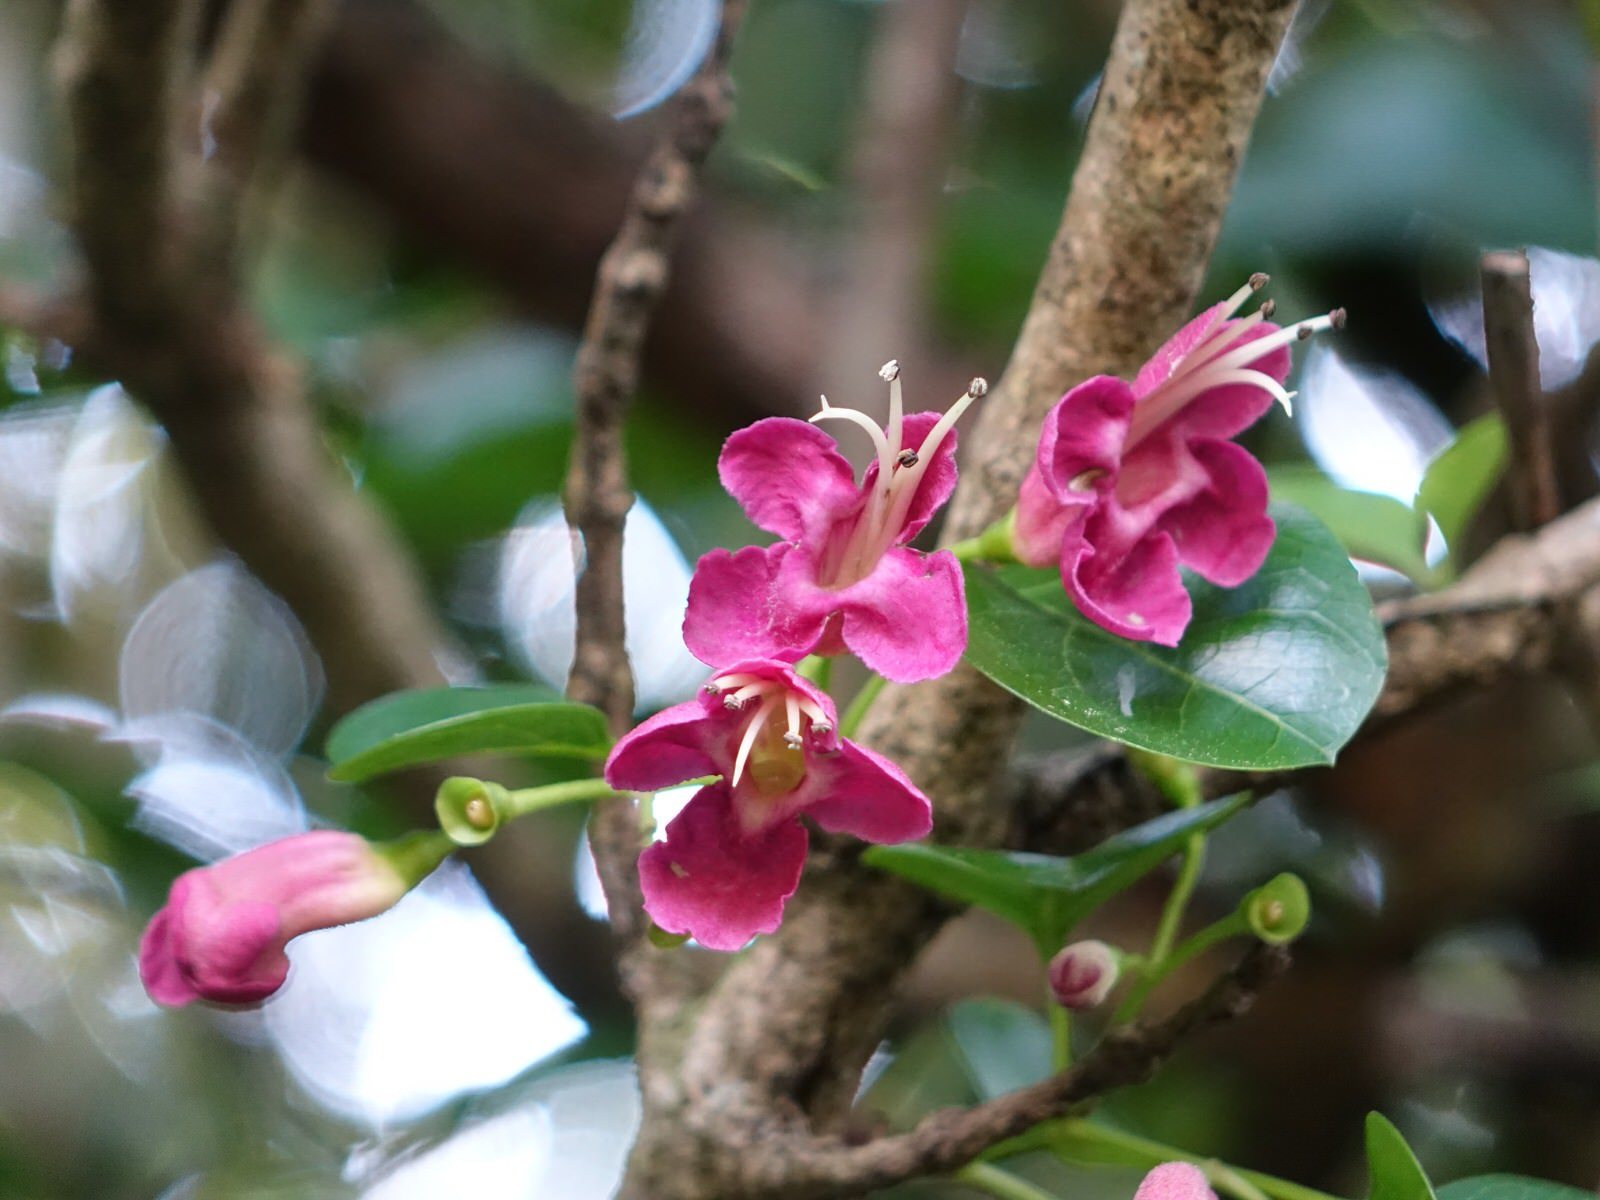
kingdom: Plantae
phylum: Tracheophyta
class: Magnoliopsida
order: Lamiales
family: Lamiaceae
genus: Vitex
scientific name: Vitex lucens
